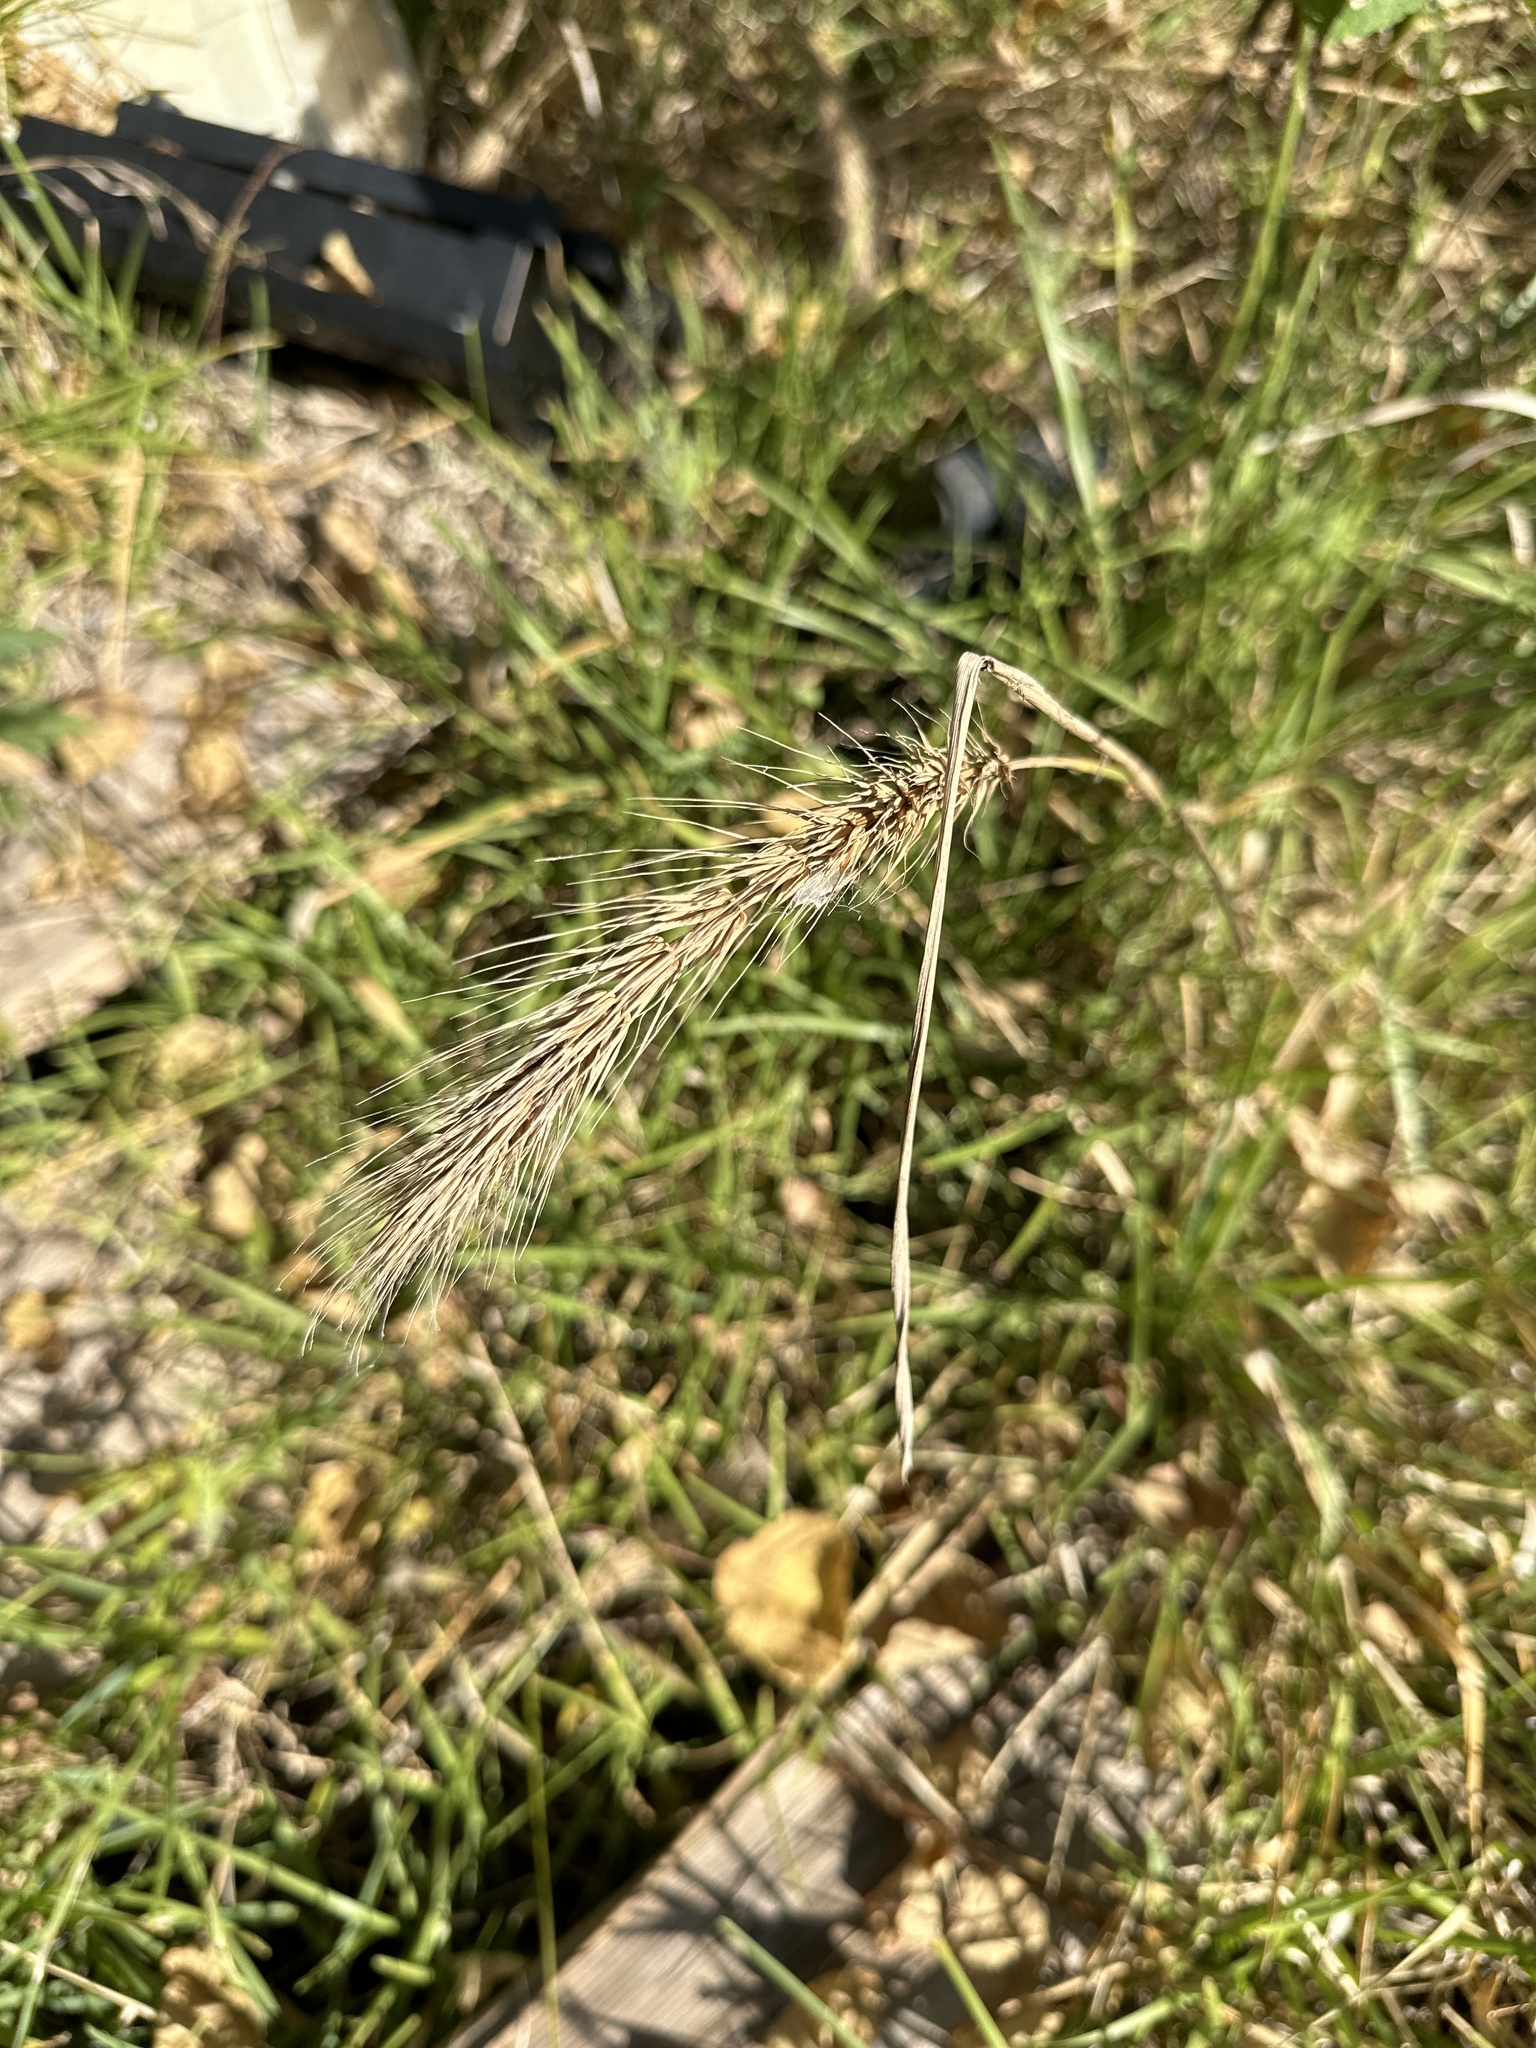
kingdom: Plantae
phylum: Tracheophyta
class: Liliopsida
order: Poales
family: Poaceae
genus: Elymus
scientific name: Elymus virginicus
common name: Common eastern wildrye
